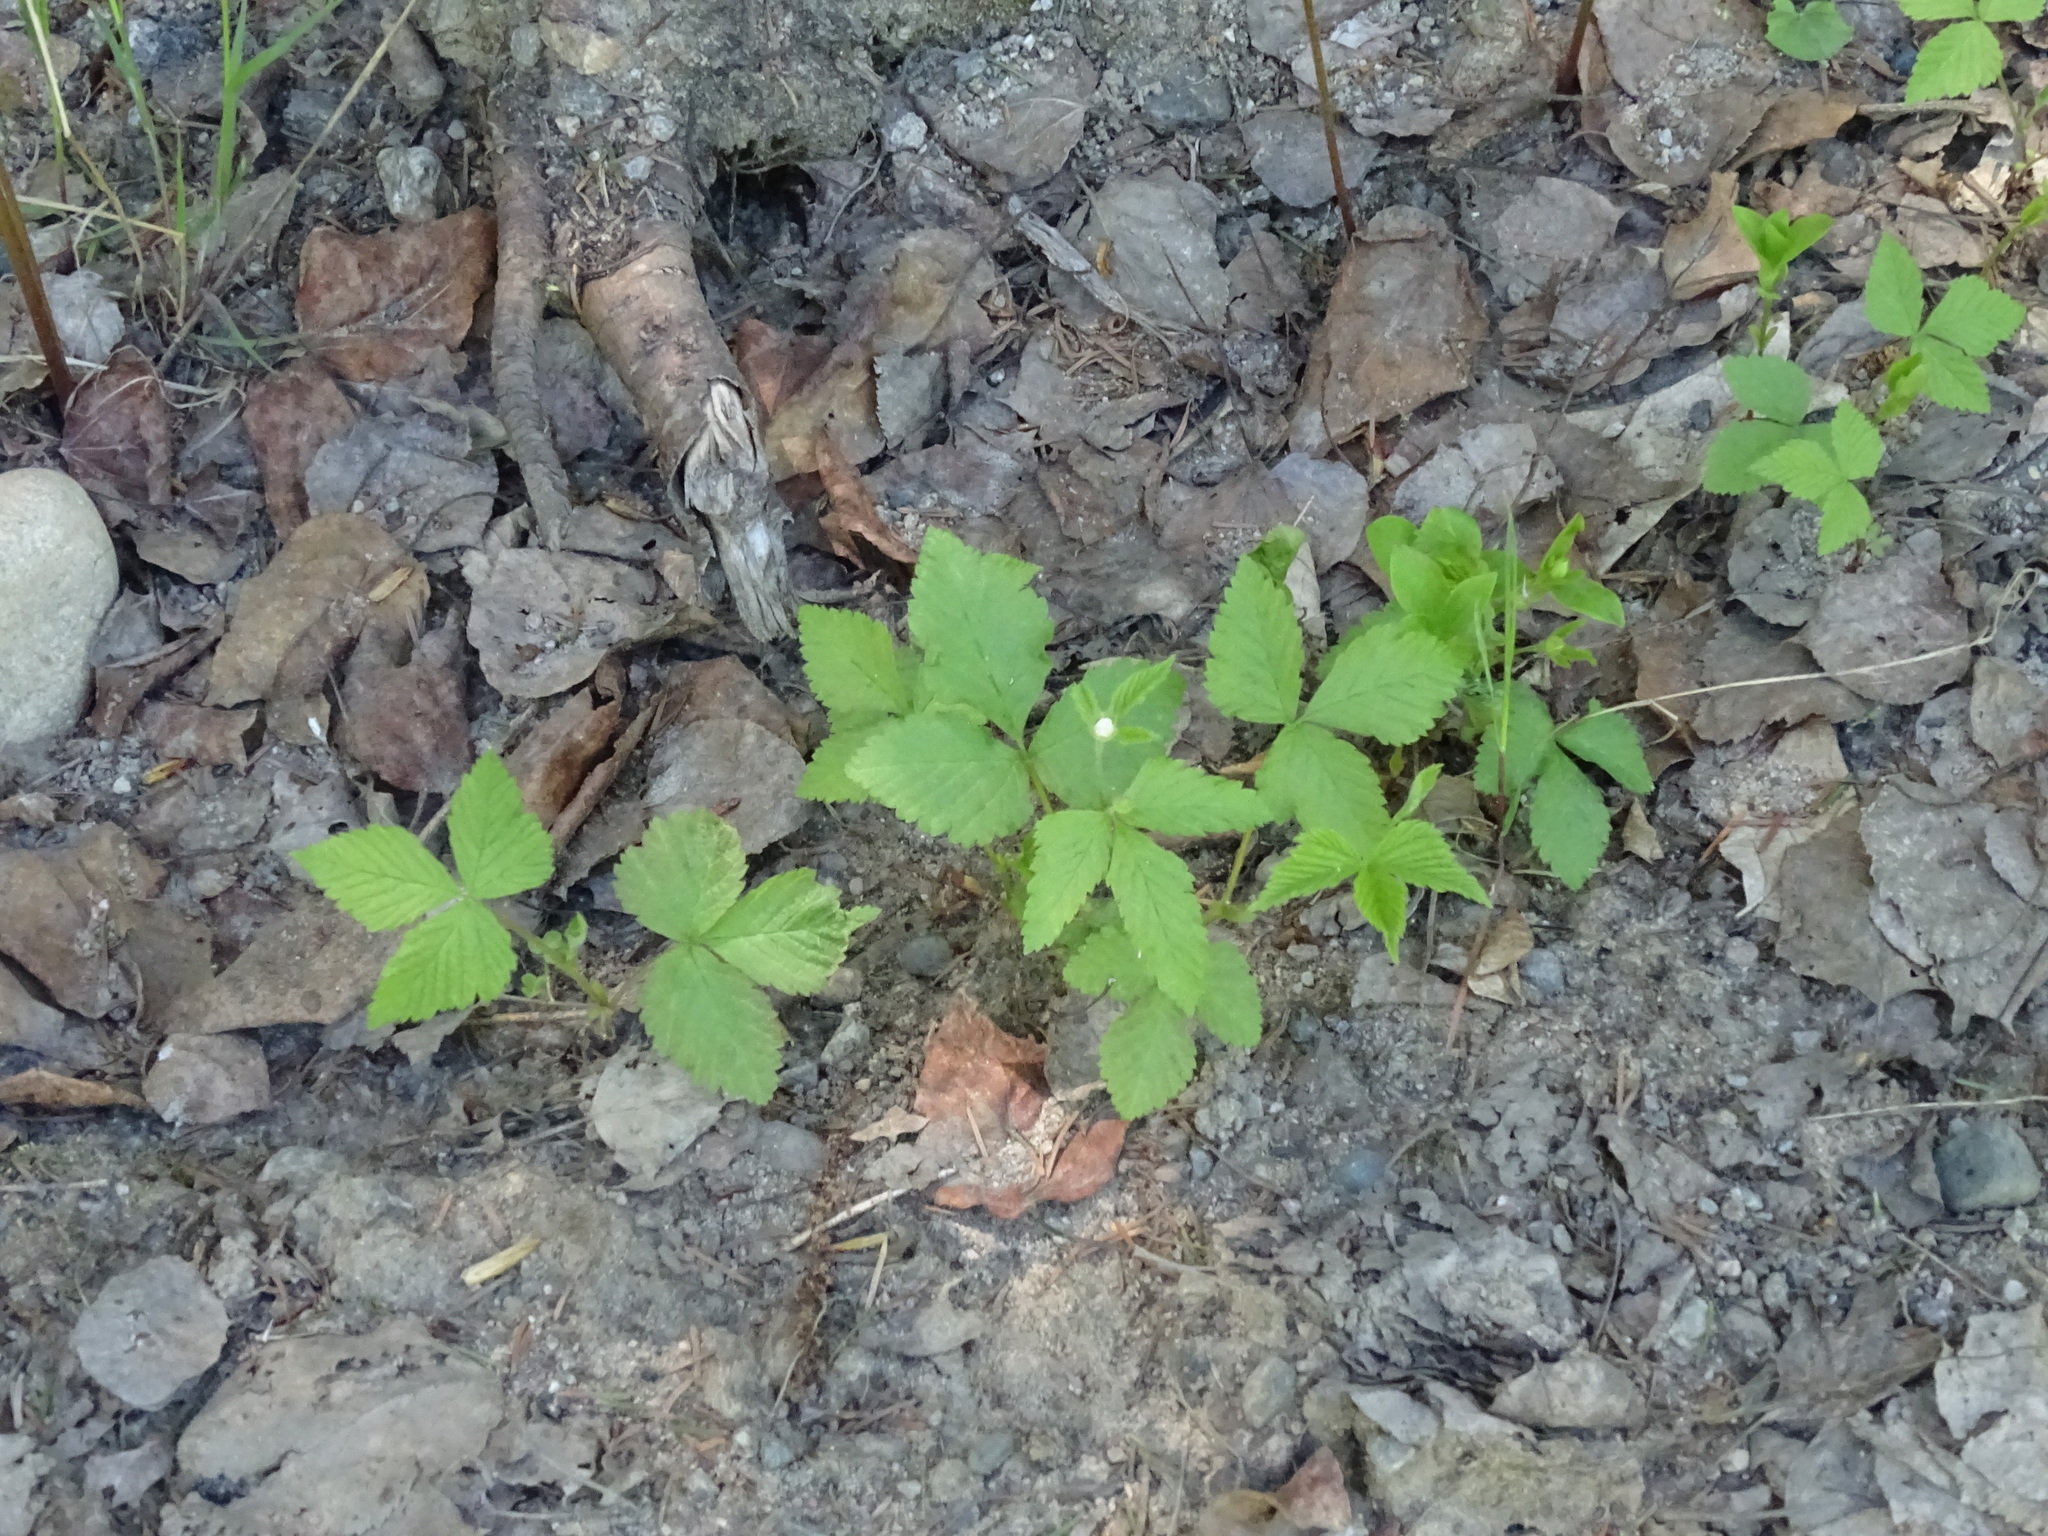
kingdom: Plantae
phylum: Tracheophyta
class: Magnoliopsida
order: Rosales
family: Rosaceae
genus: Rubus
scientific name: Rubus pubescens
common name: Dwarf raspberry
